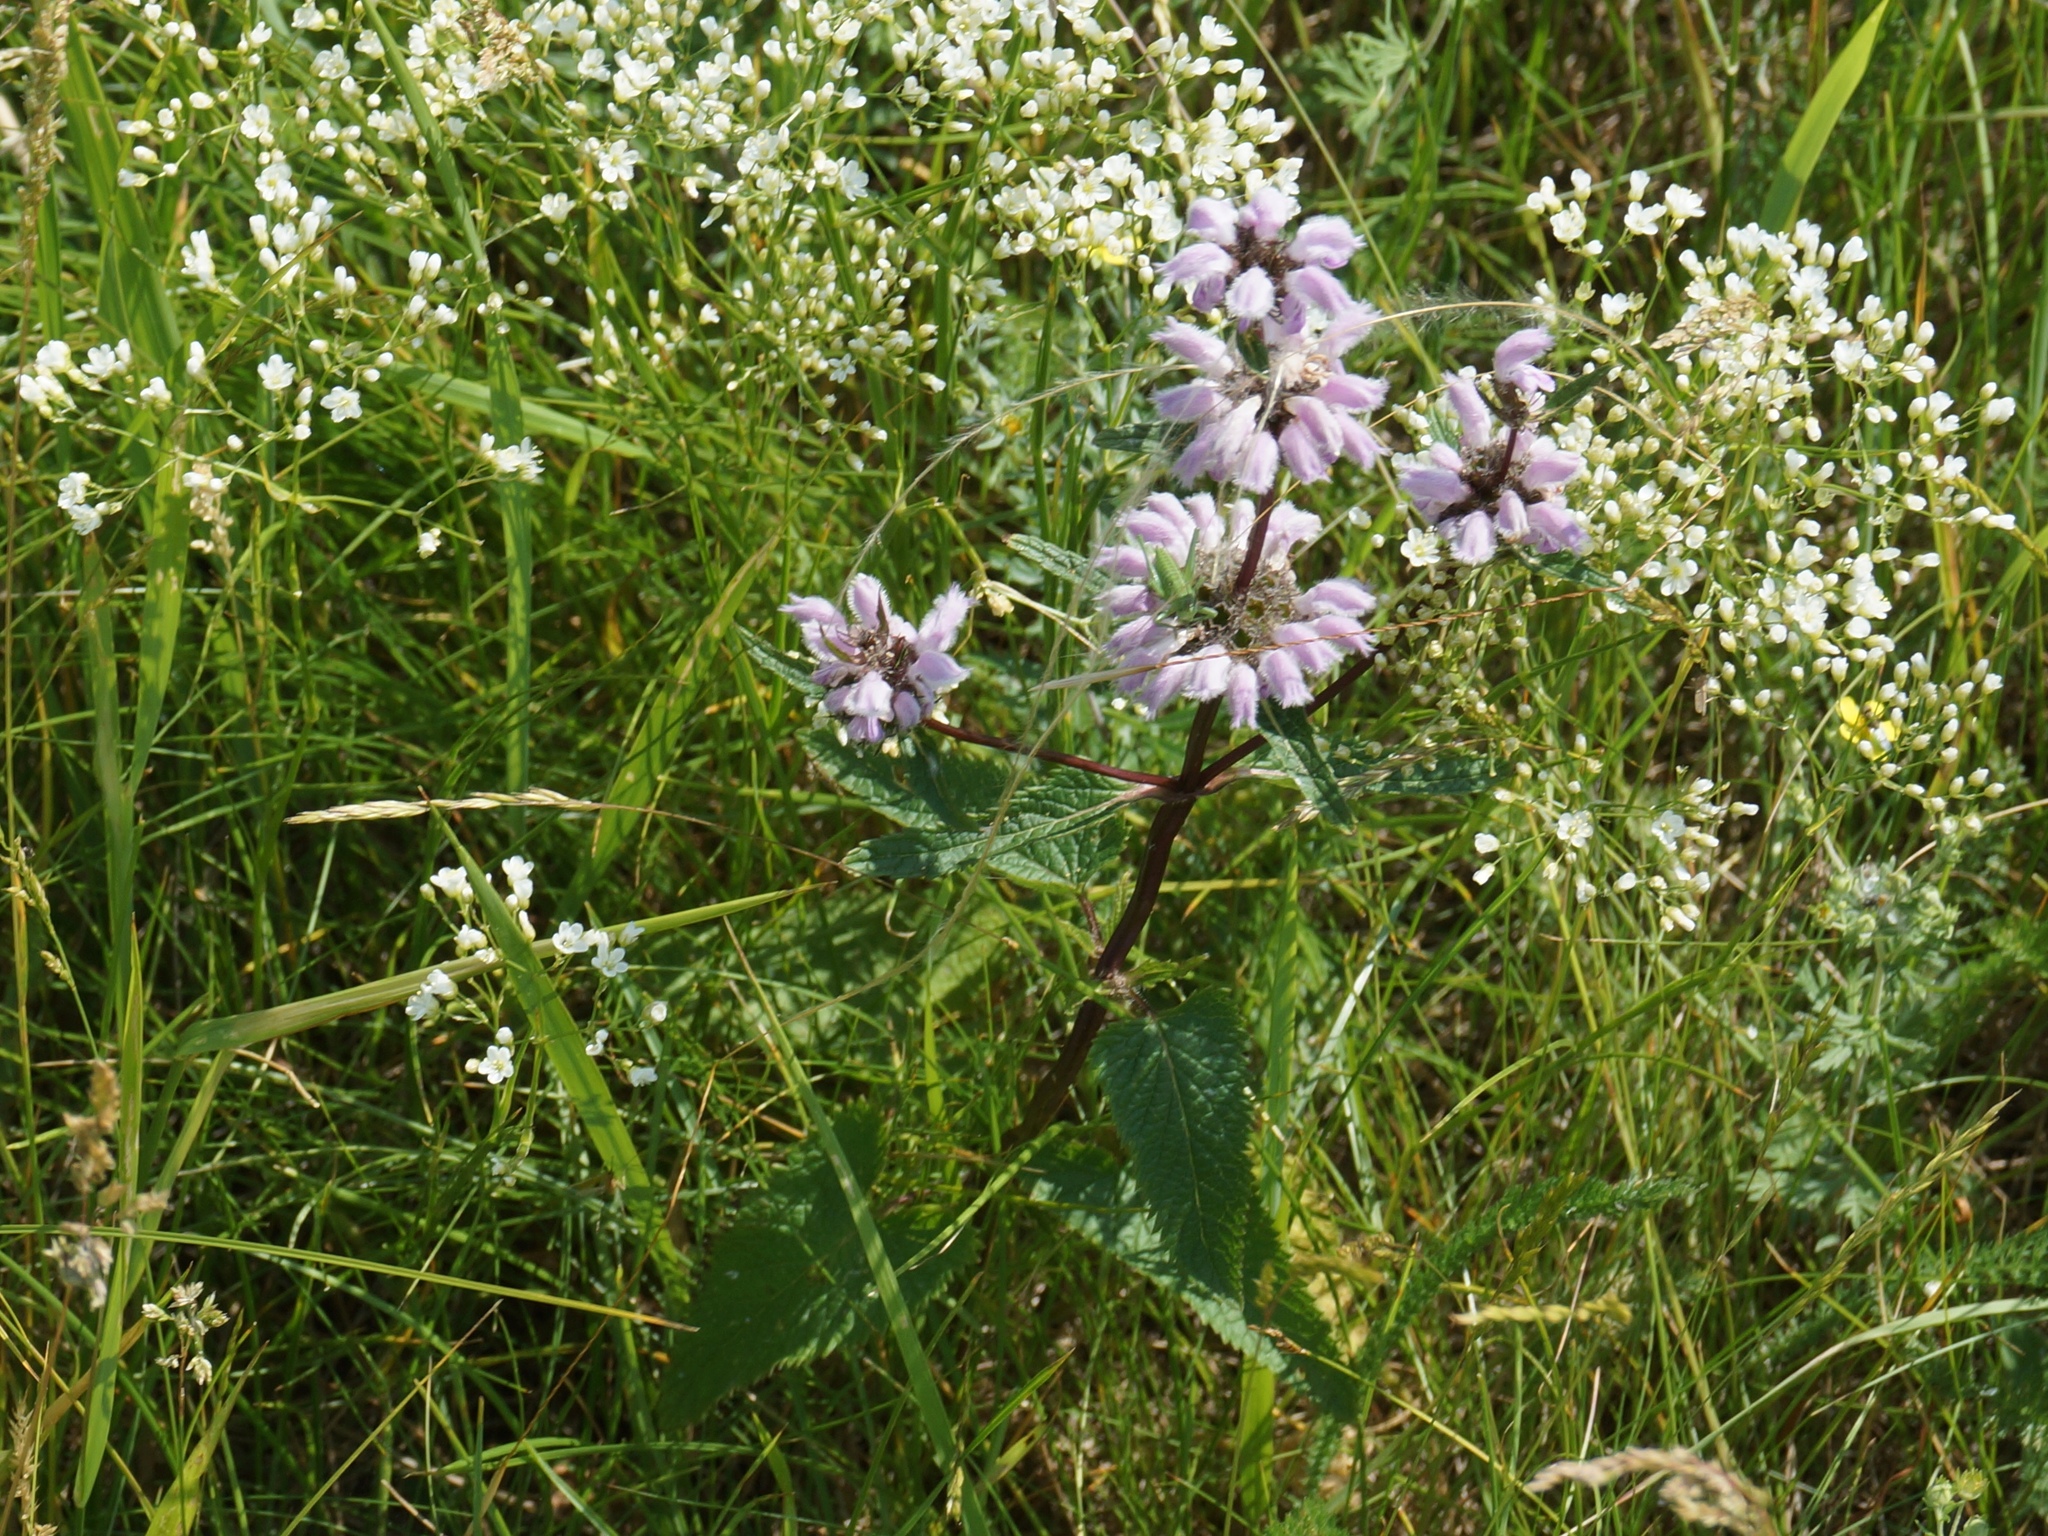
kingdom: Plantae
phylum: Tracheophyta
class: Magnoliopsida
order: Lamiales
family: Lamiaceae
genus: Phlomoides
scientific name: Phlomoides tuberosa
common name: Tuberous jerusalem sage
